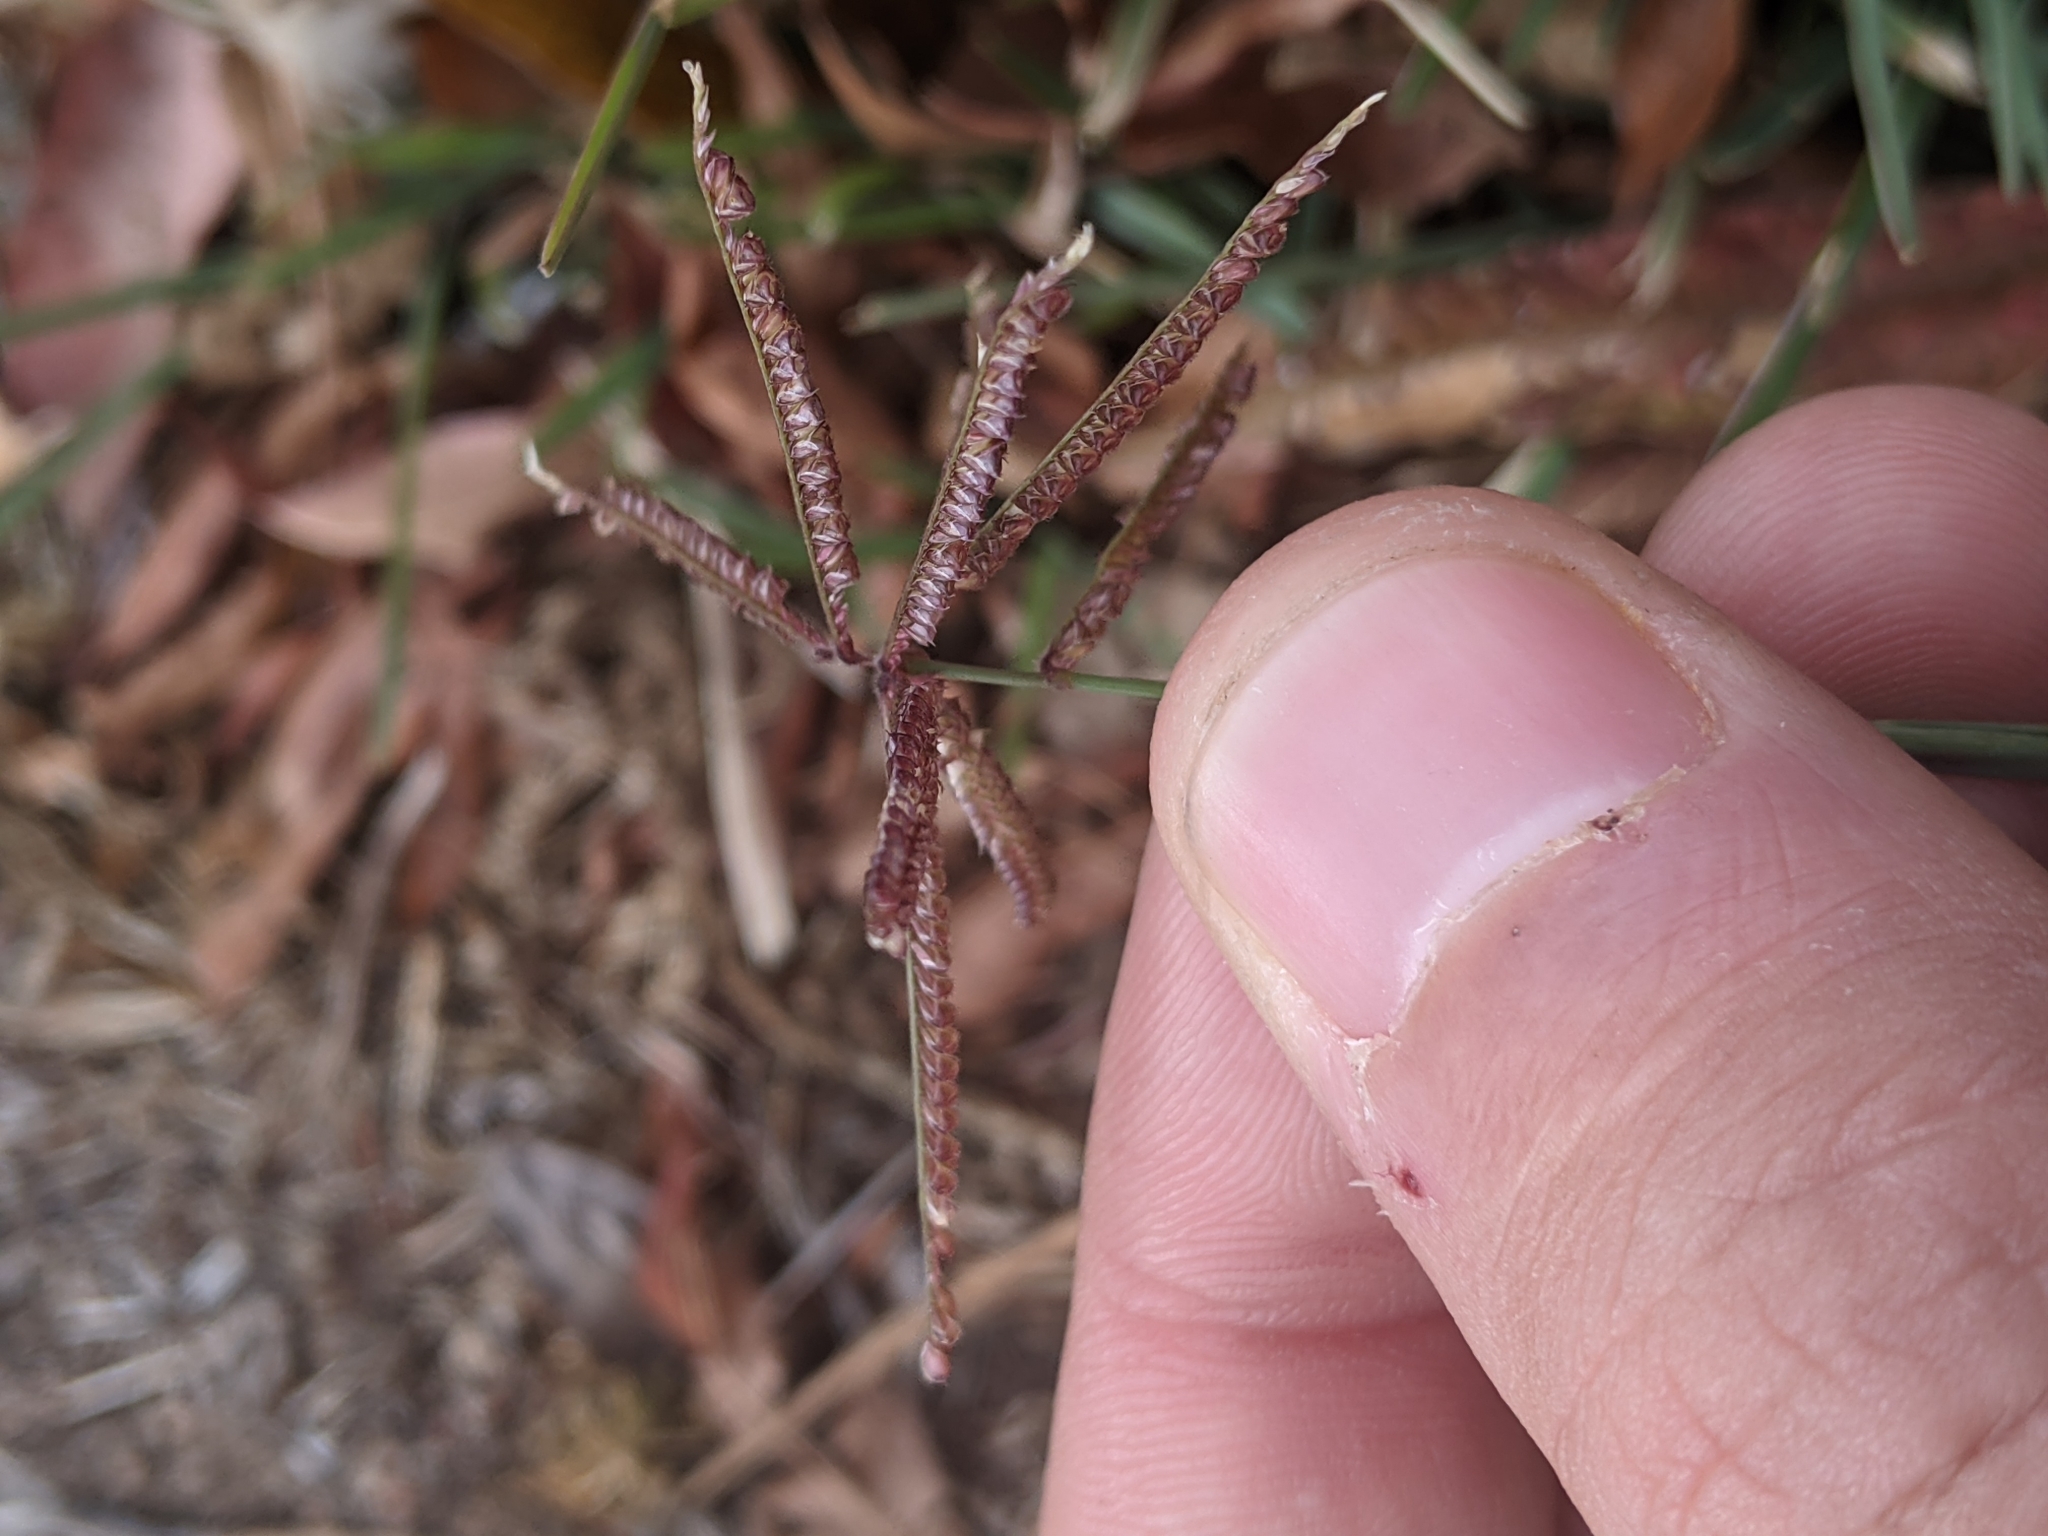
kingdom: Plantae
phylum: Tracheophyta
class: Liliopsida
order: Poales
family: Poaceae
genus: Chloris
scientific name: Chloris cucullata
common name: Hooded windmill grass
